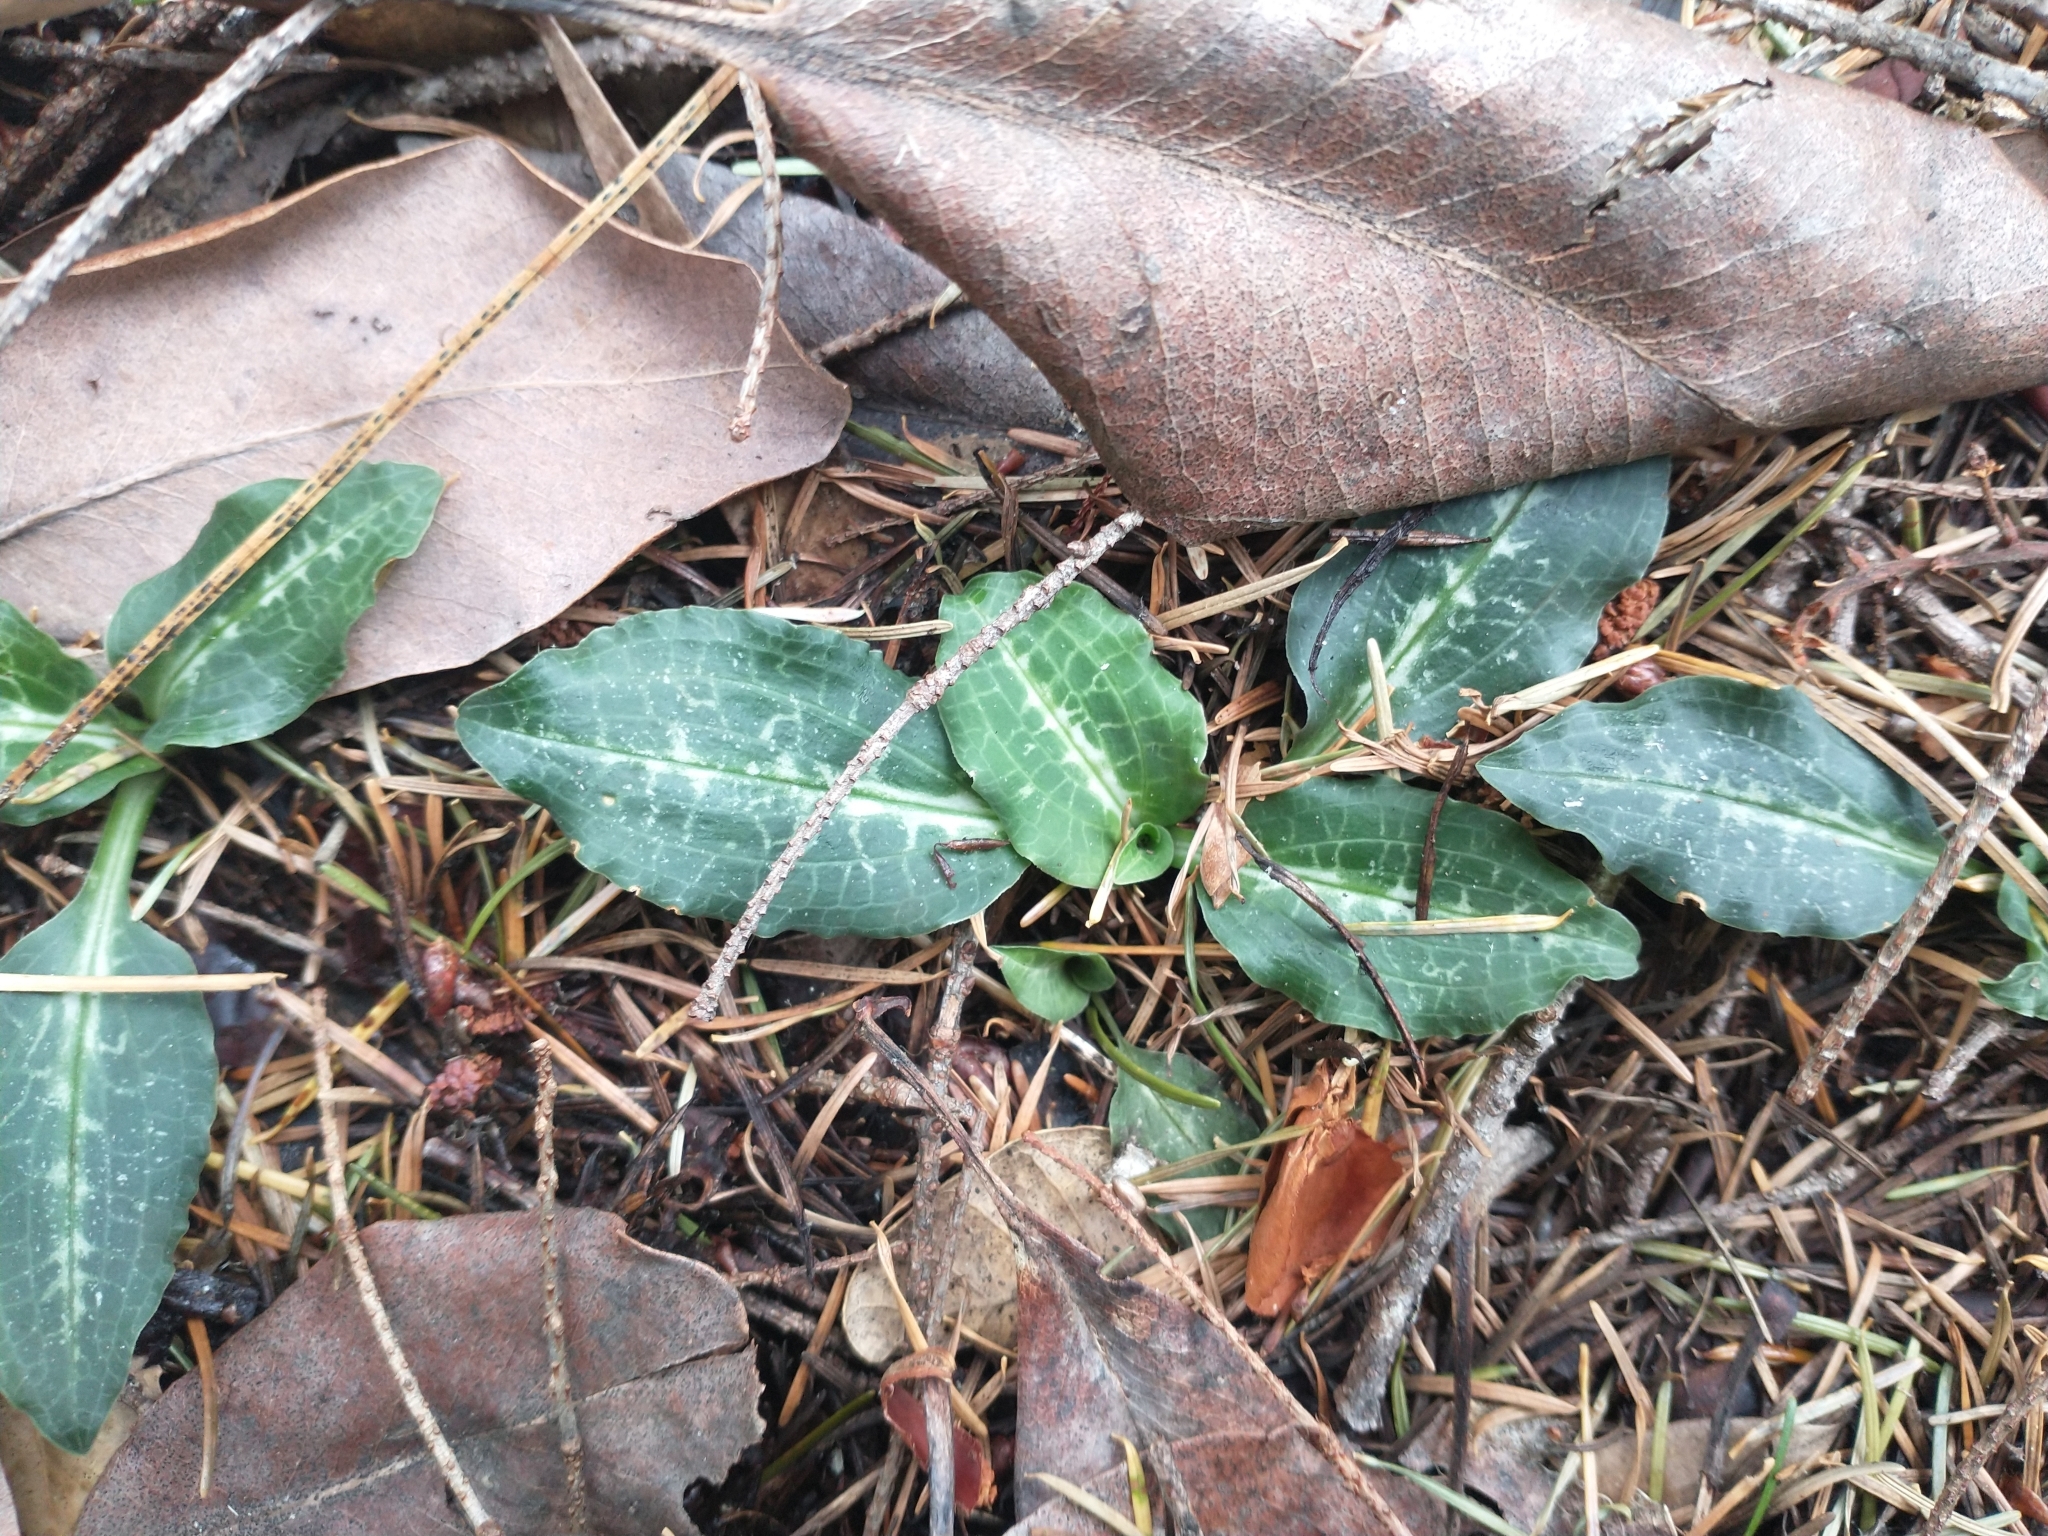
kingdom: Plantae
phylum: Tracheophyta
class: Liliopsida
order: Asparagales
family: Orchidaceae
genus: Goodyera
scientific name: Goodyera oblongifolia
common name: Giant rattlesnake-plantain
